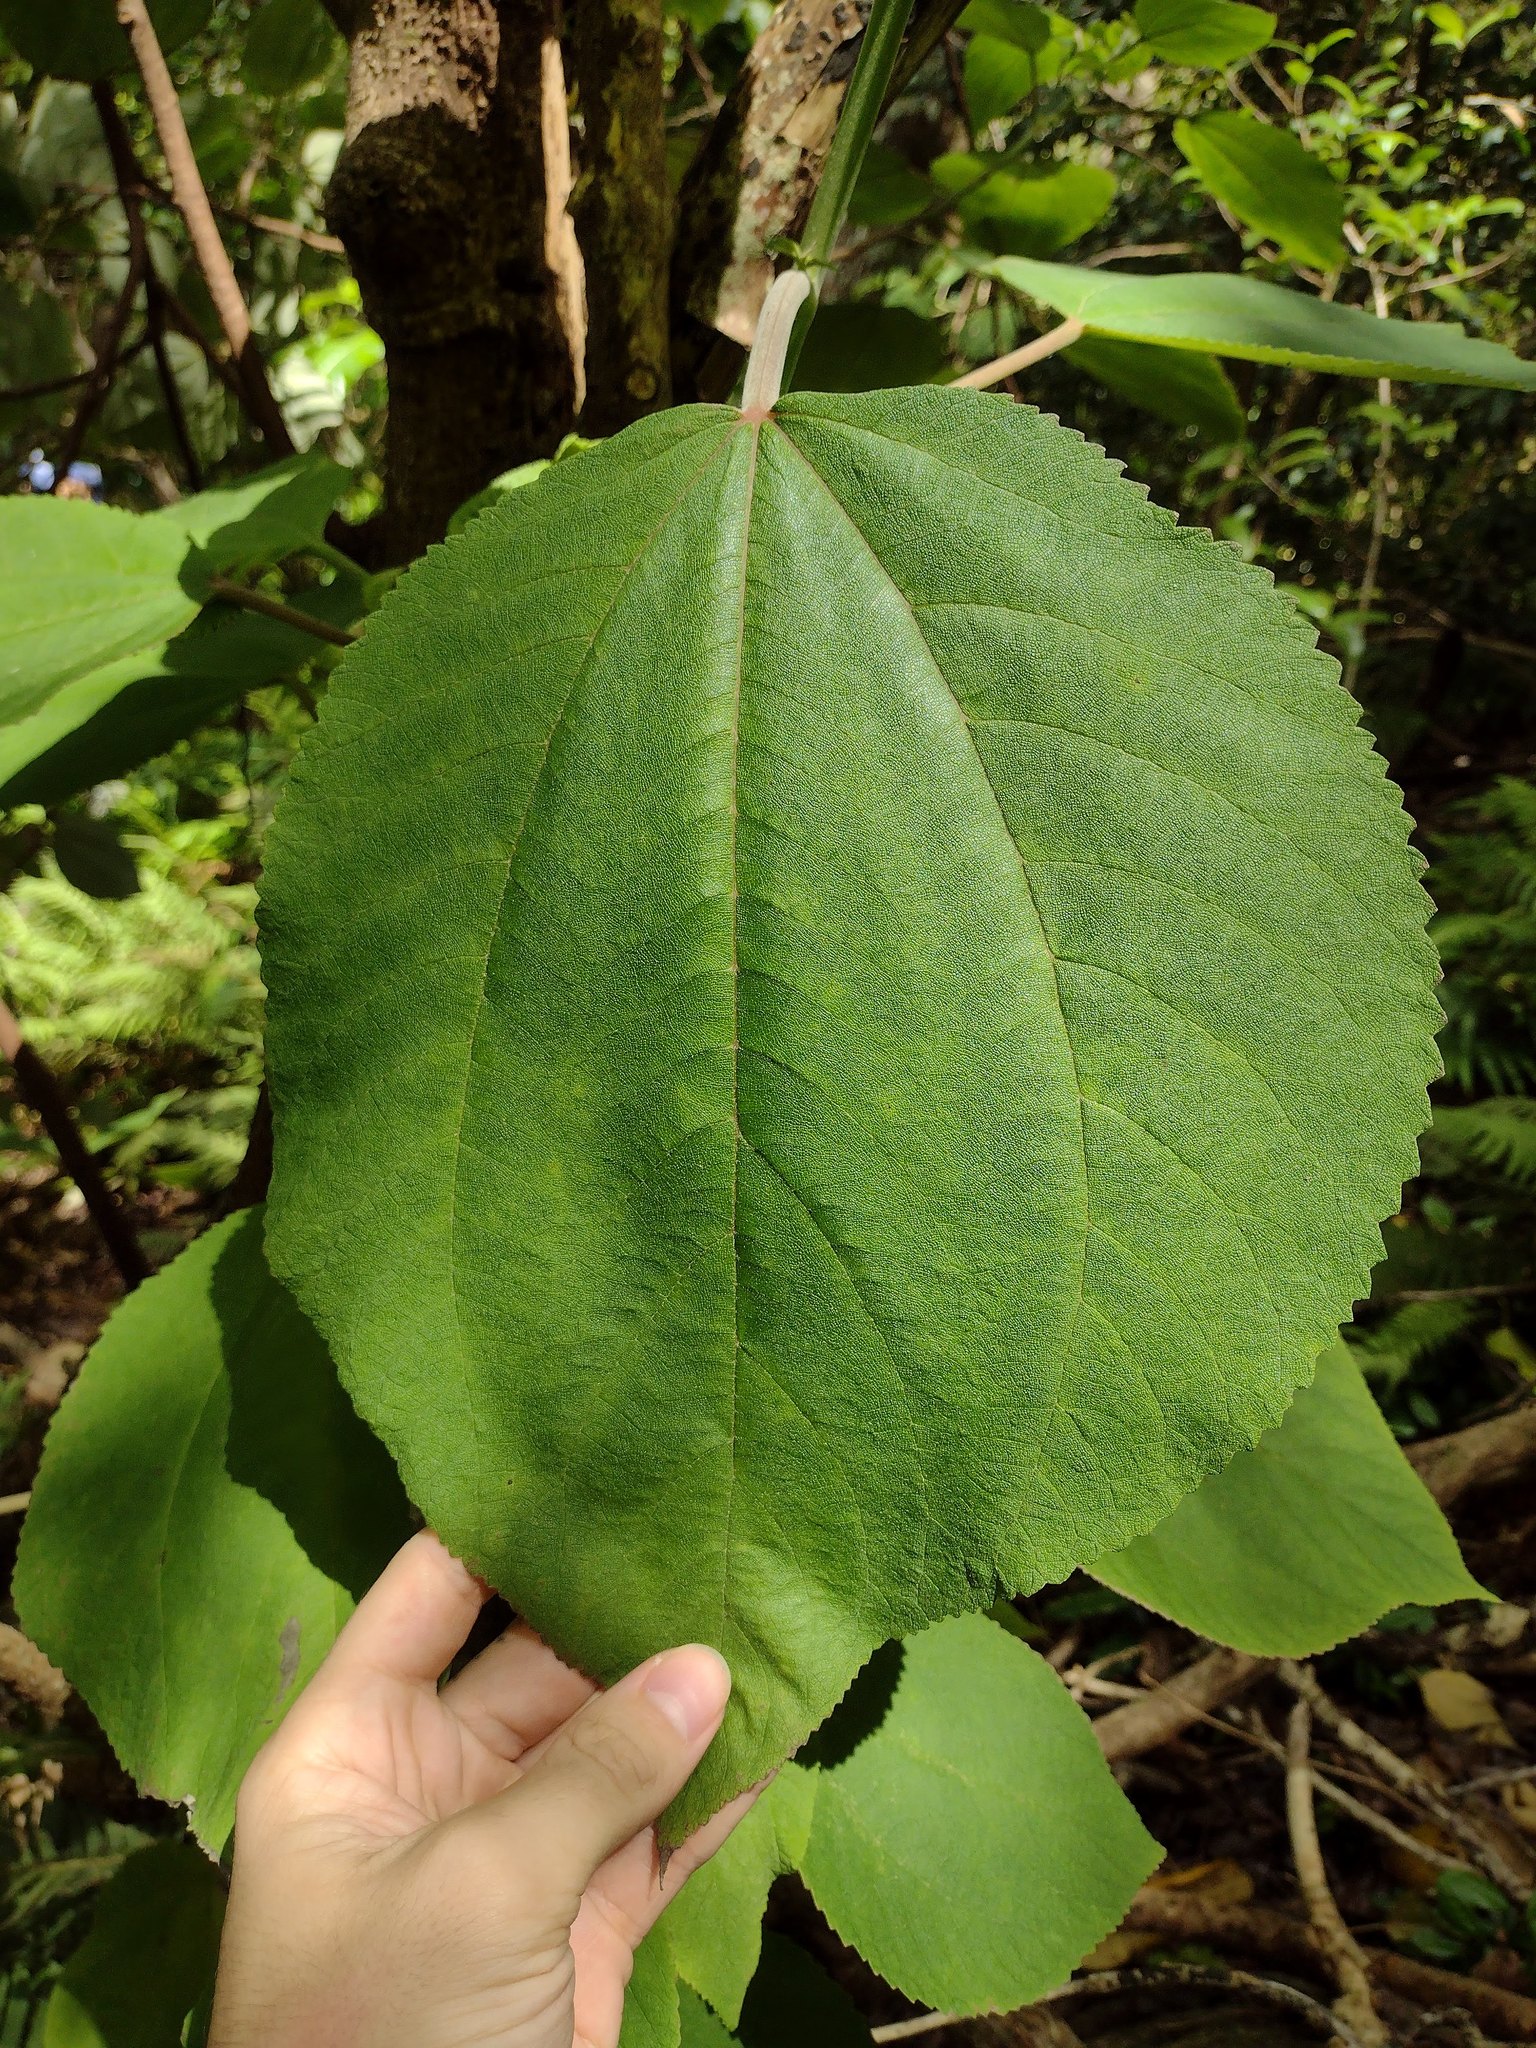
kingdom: Plantae
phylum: Tracheophyta
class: Magnoliopsida
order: Rosales
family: Urticaceae
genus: Pipturus
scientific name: Pipturus albidus
